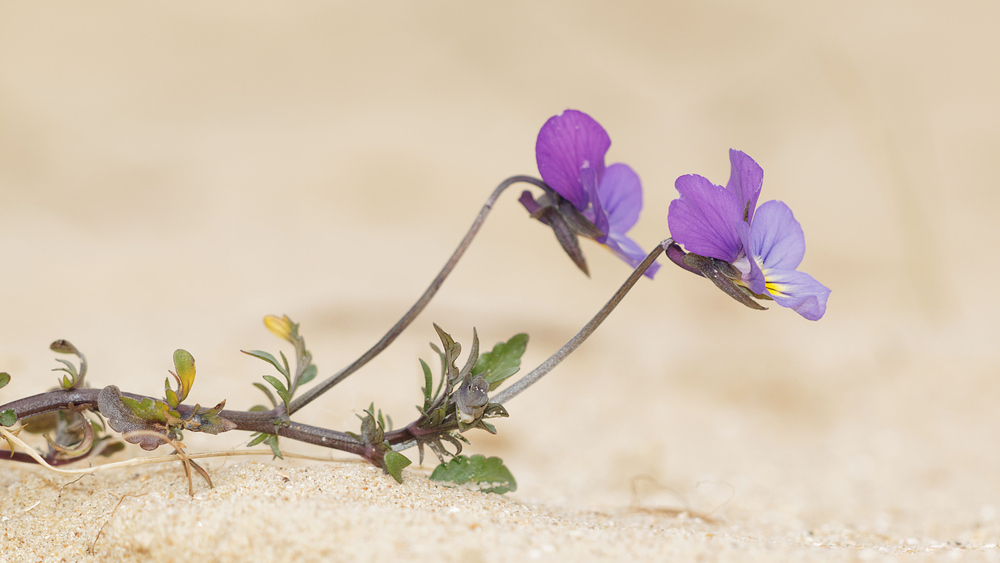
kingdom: Plantae
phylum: Tracheophyta
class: Magnoliopsida
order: Malpighiales
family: Violaceae
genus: Viola
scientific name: Viola tricolor
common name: Pansy
